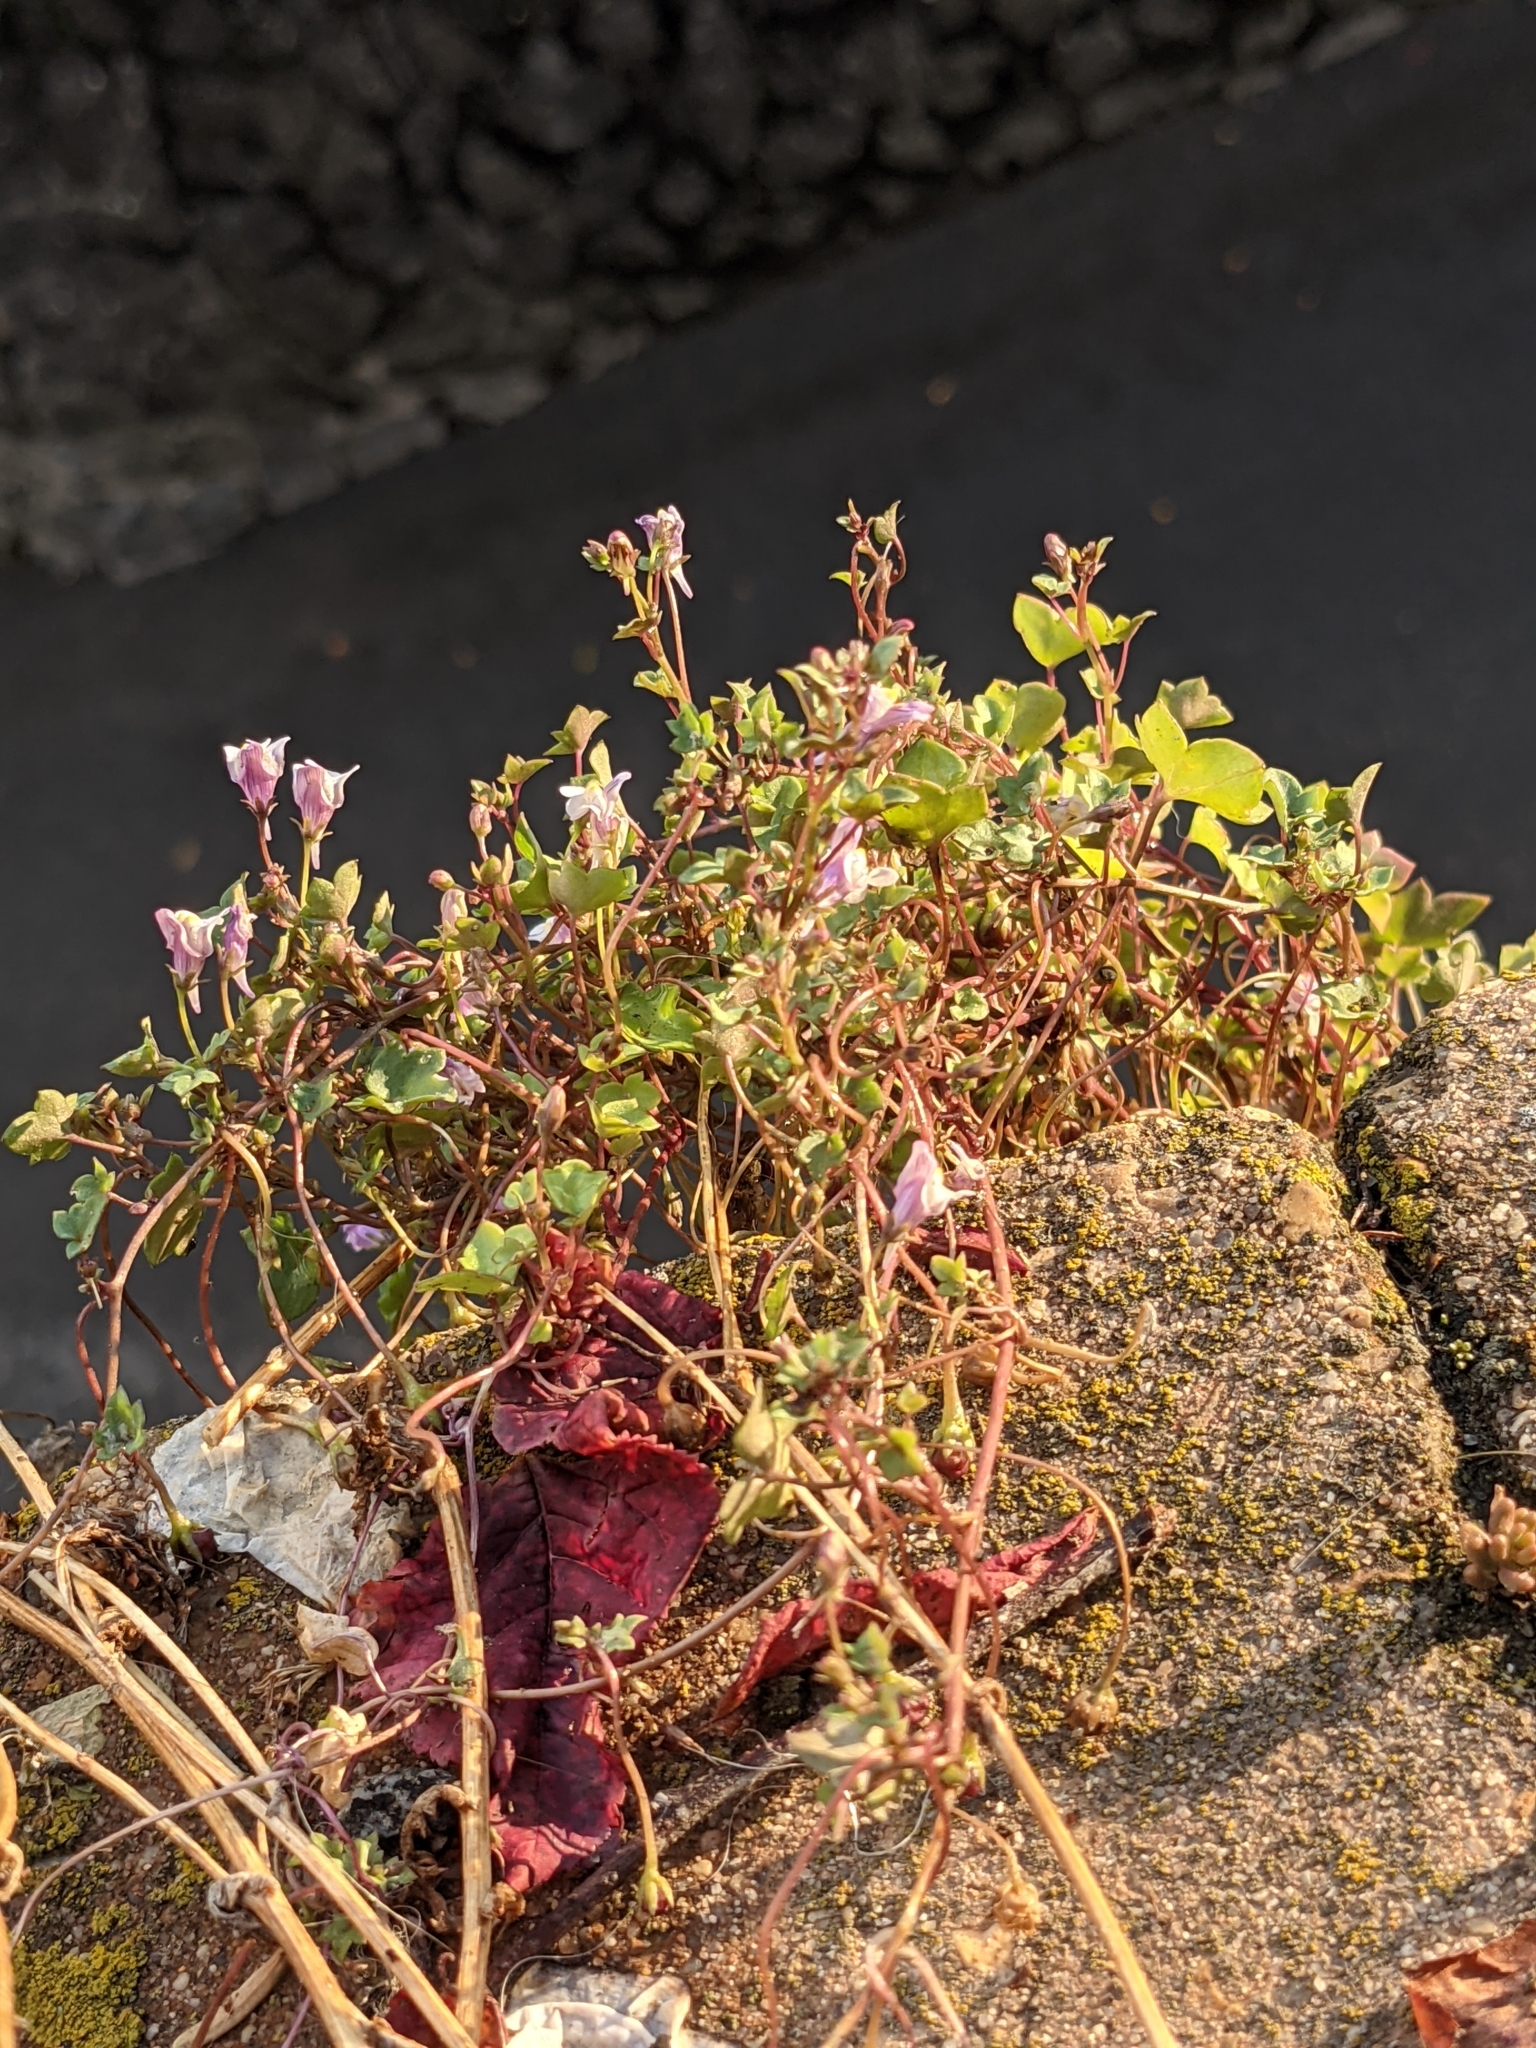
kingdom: Plantae
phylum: Tracheophyta
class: Magnoliopsida
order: Lamiales
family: Plantaginaceae
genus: Cymbalaria
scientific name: Cymbalaria muralis
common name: Ivy-leaved toadflax
